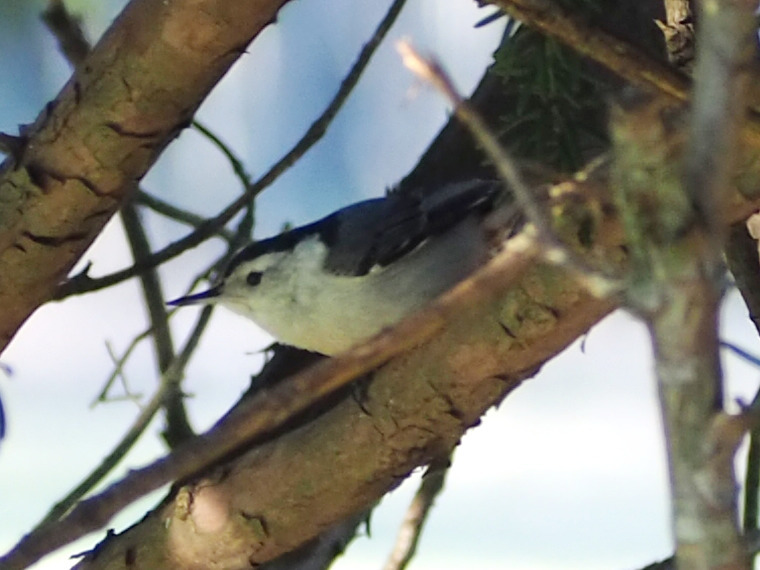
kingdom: Animalia
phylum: Chordata
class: Aves
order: Passeriformes
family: Sittidae
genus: Sitta
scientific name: Sitta carolinensis
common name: White-breasted nuthatch
